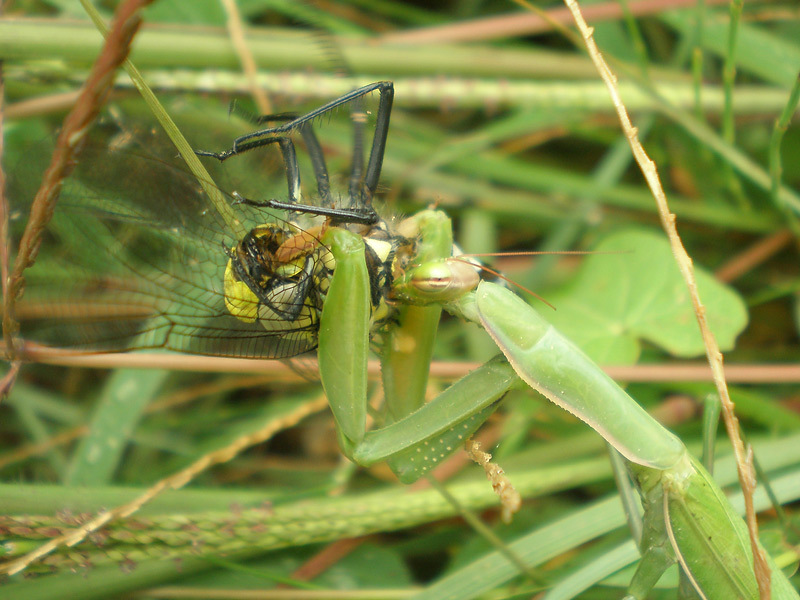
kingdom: Animalia
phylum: Arthropoda
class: Insecta
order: Mantodea
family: Mantidae
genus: Mantis
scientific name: Mantis religiosa
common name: Praying mantis
